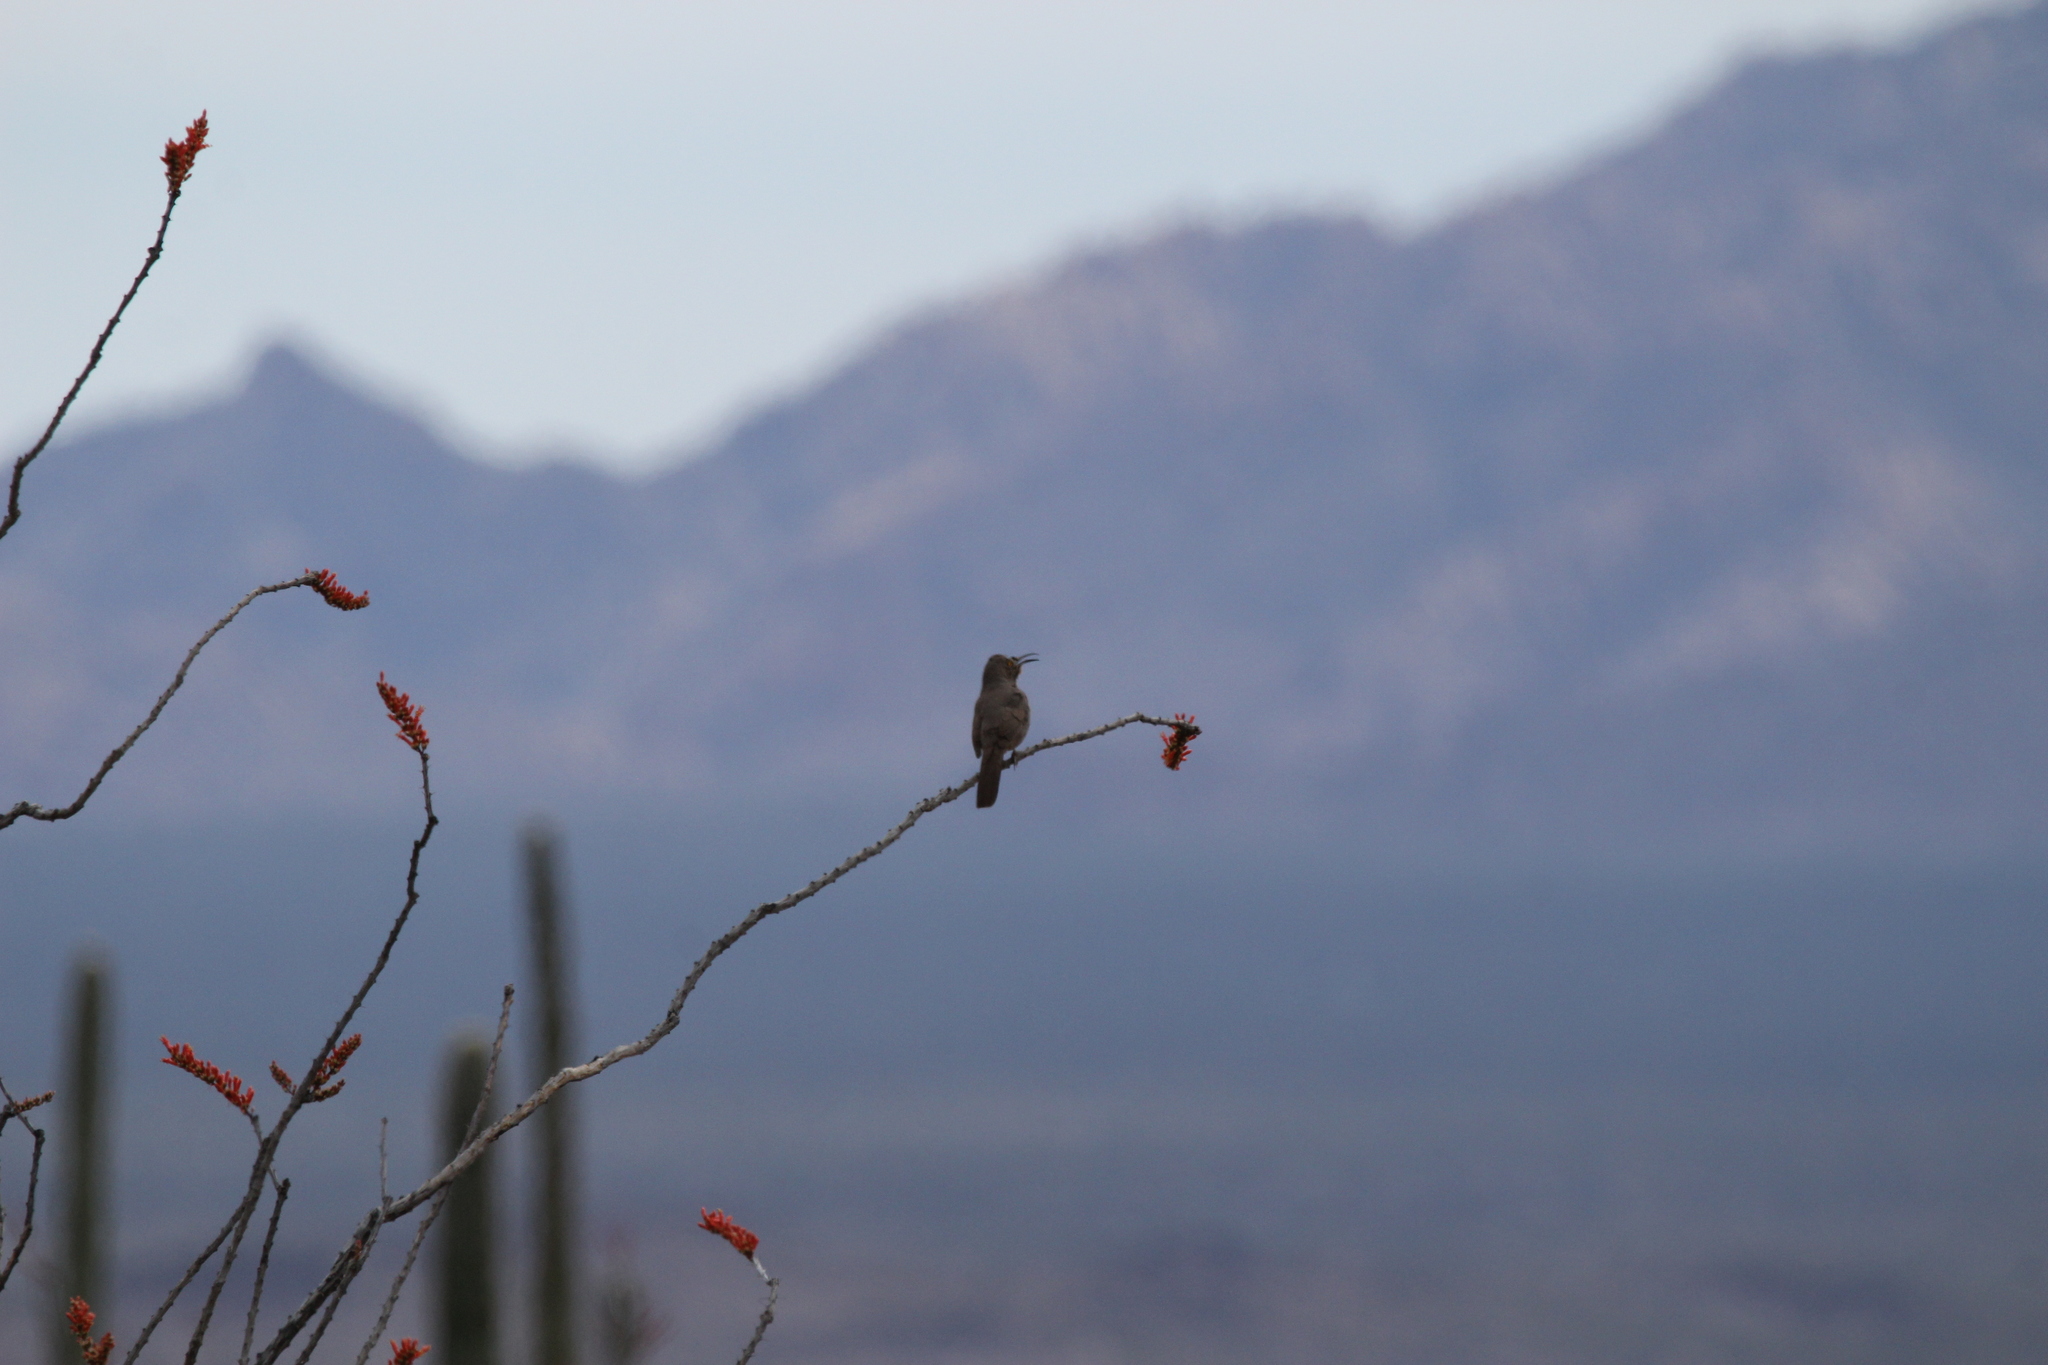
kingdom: Animalia
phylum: Chordata
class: Aves
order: Passeriformes
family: Mimidae
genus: Toxostoma
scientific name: Toxostoma curvirostre
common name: Curve-billed thrasher
